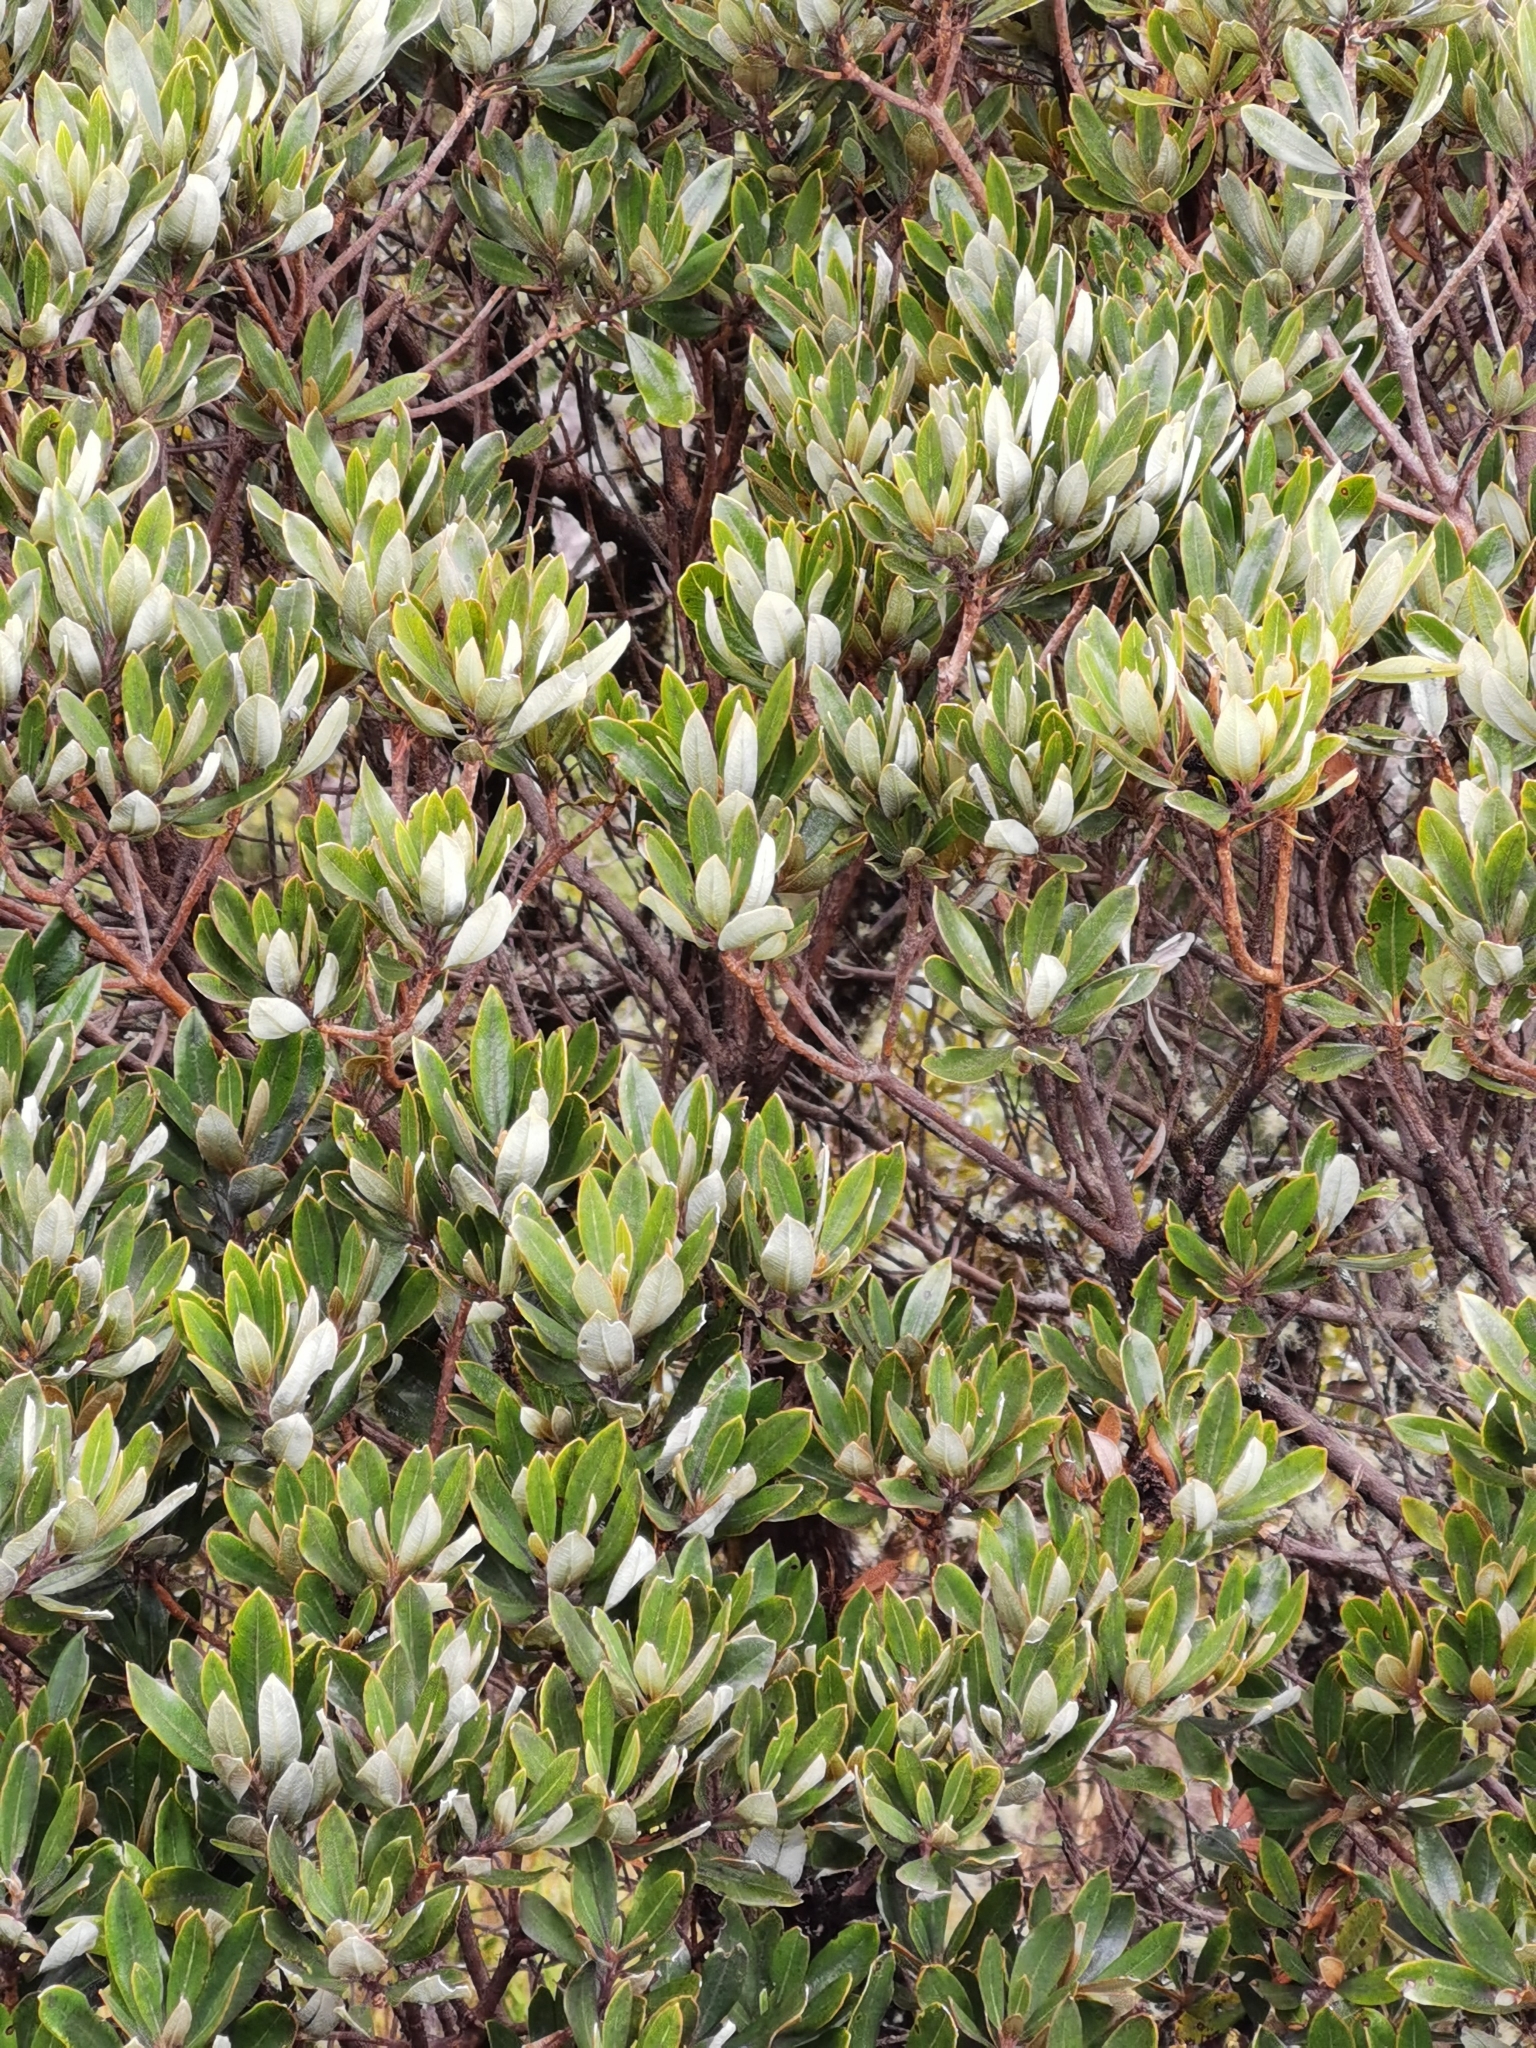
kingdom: Plantae
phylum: Tracheophyta
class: Magnoliopsida
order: Ericales
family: Ericaceae
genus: Comarostaphylis
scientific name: Comarostaphylis arbutoides
